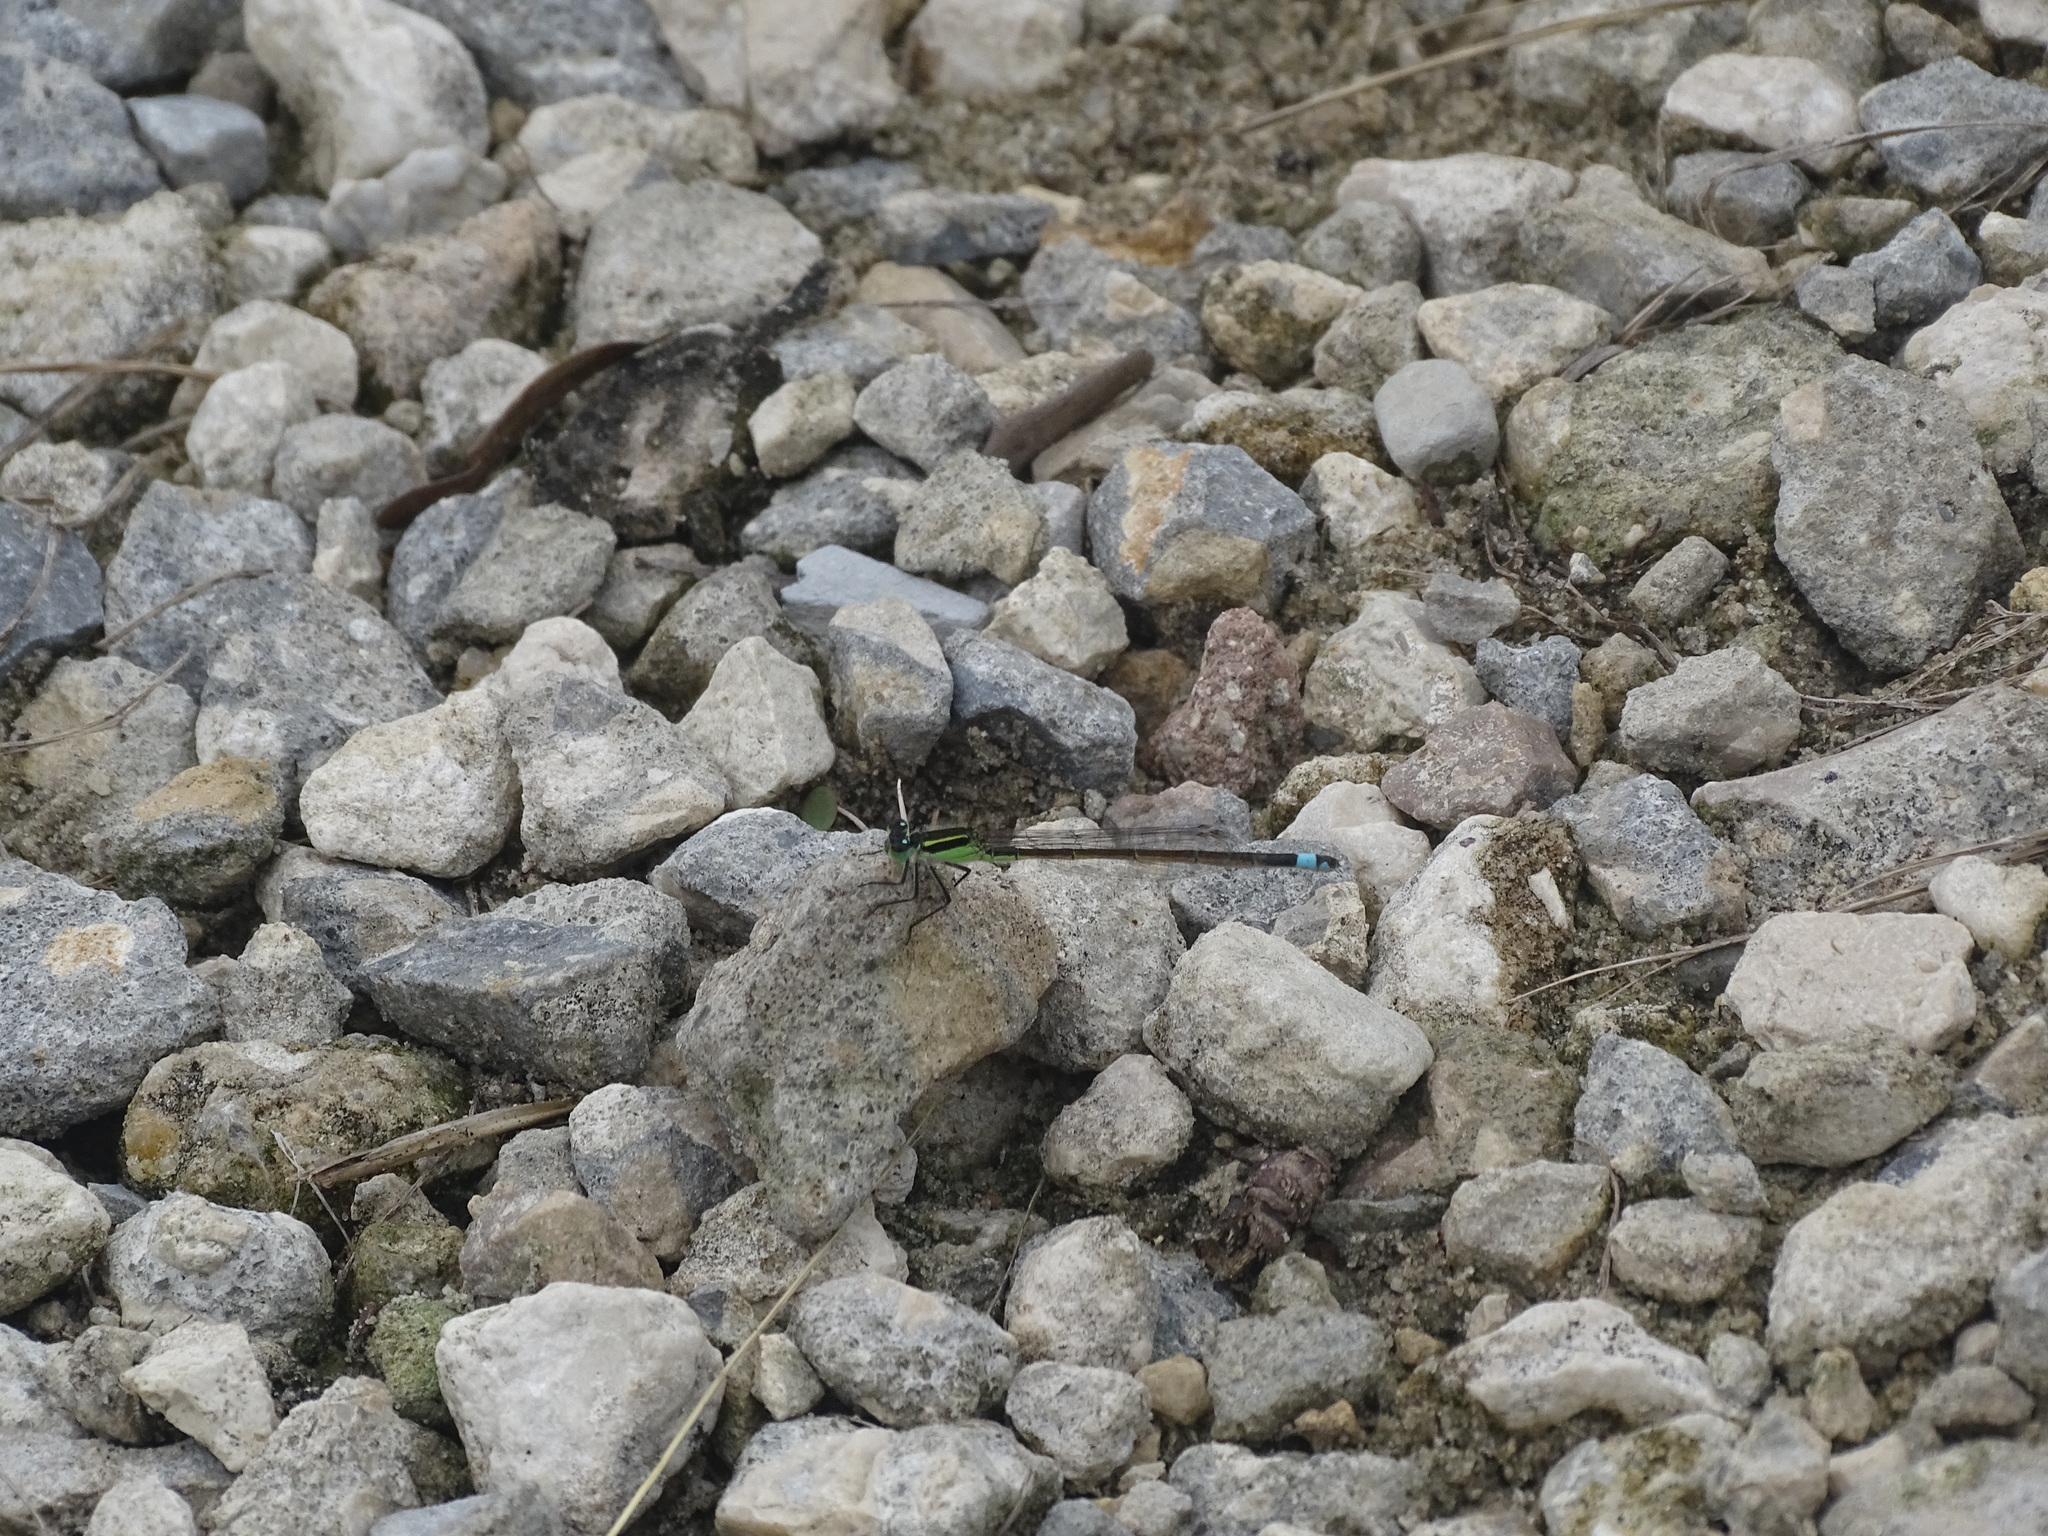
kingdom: Animalia
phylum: Arthropoda
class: Insecta
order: Odonata
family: Coenagrionidae
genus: Ischnura
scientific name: Ischnura ramburii
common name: Rambur's forktail
